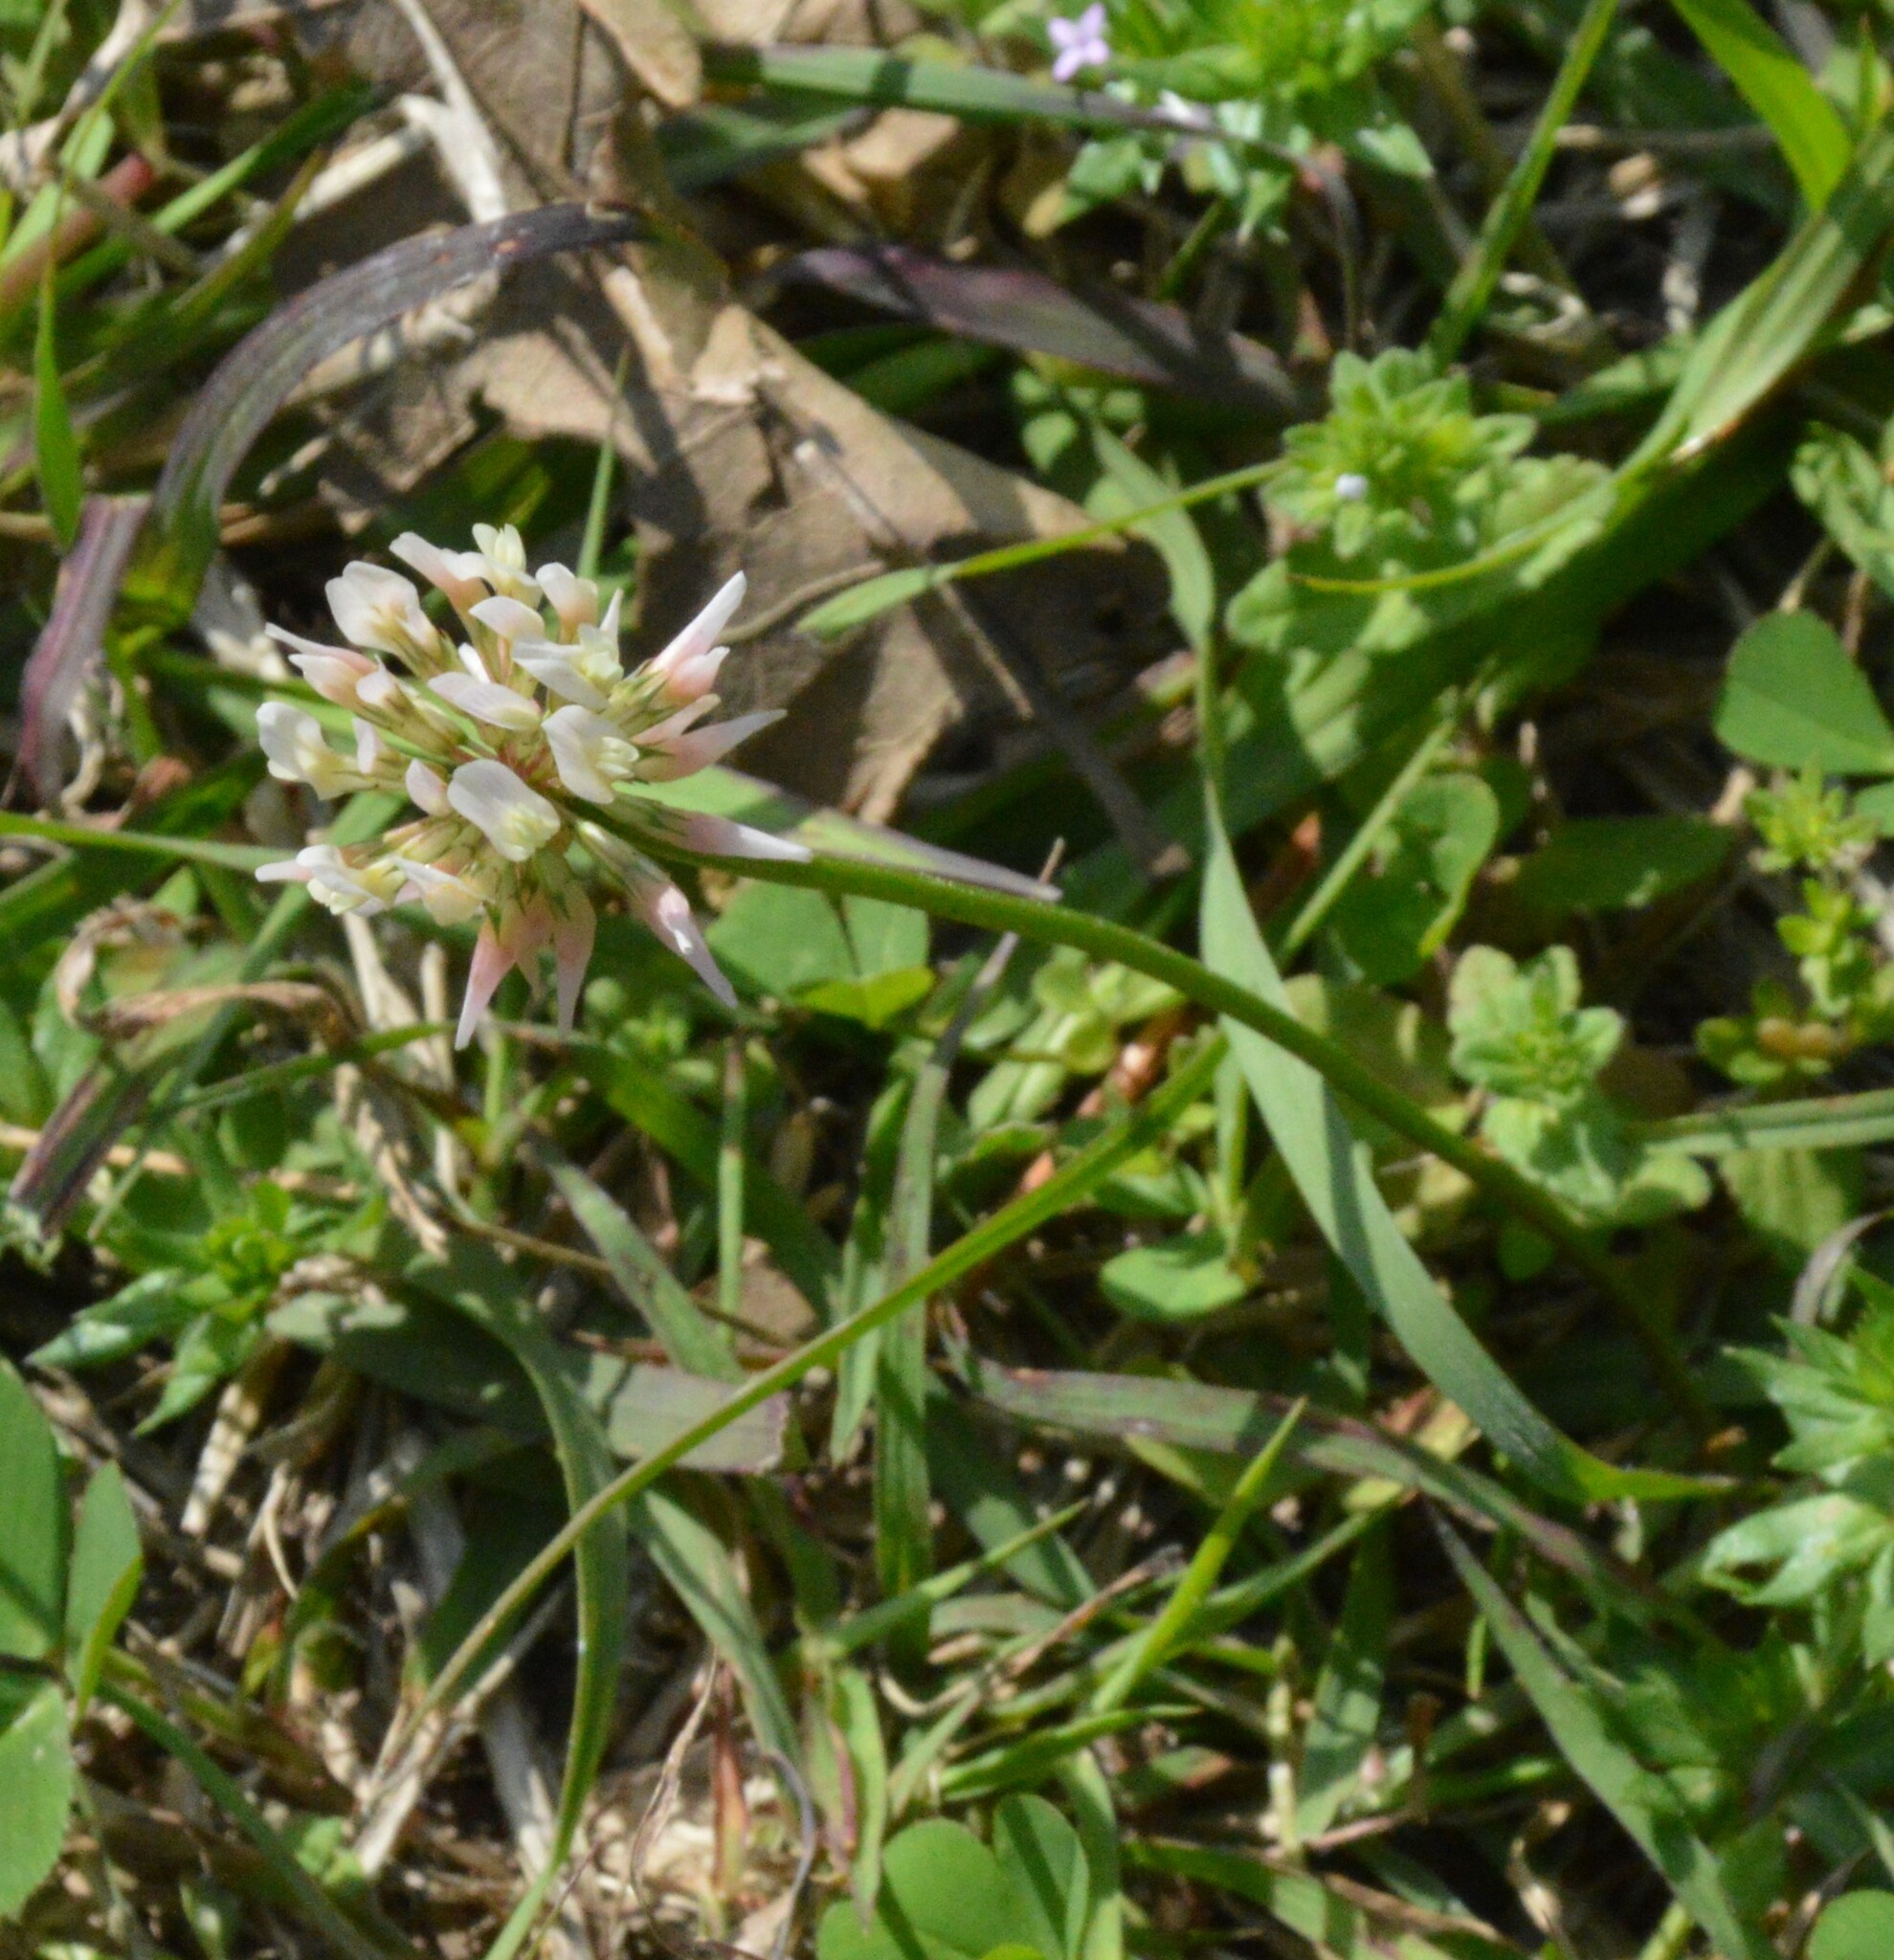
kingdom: Plantae
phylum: Tracheophyta
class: Magnoliopsida
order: Fabales
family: Fabaceae
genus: Trifolium
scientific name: Trifolium repens
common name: White clover
